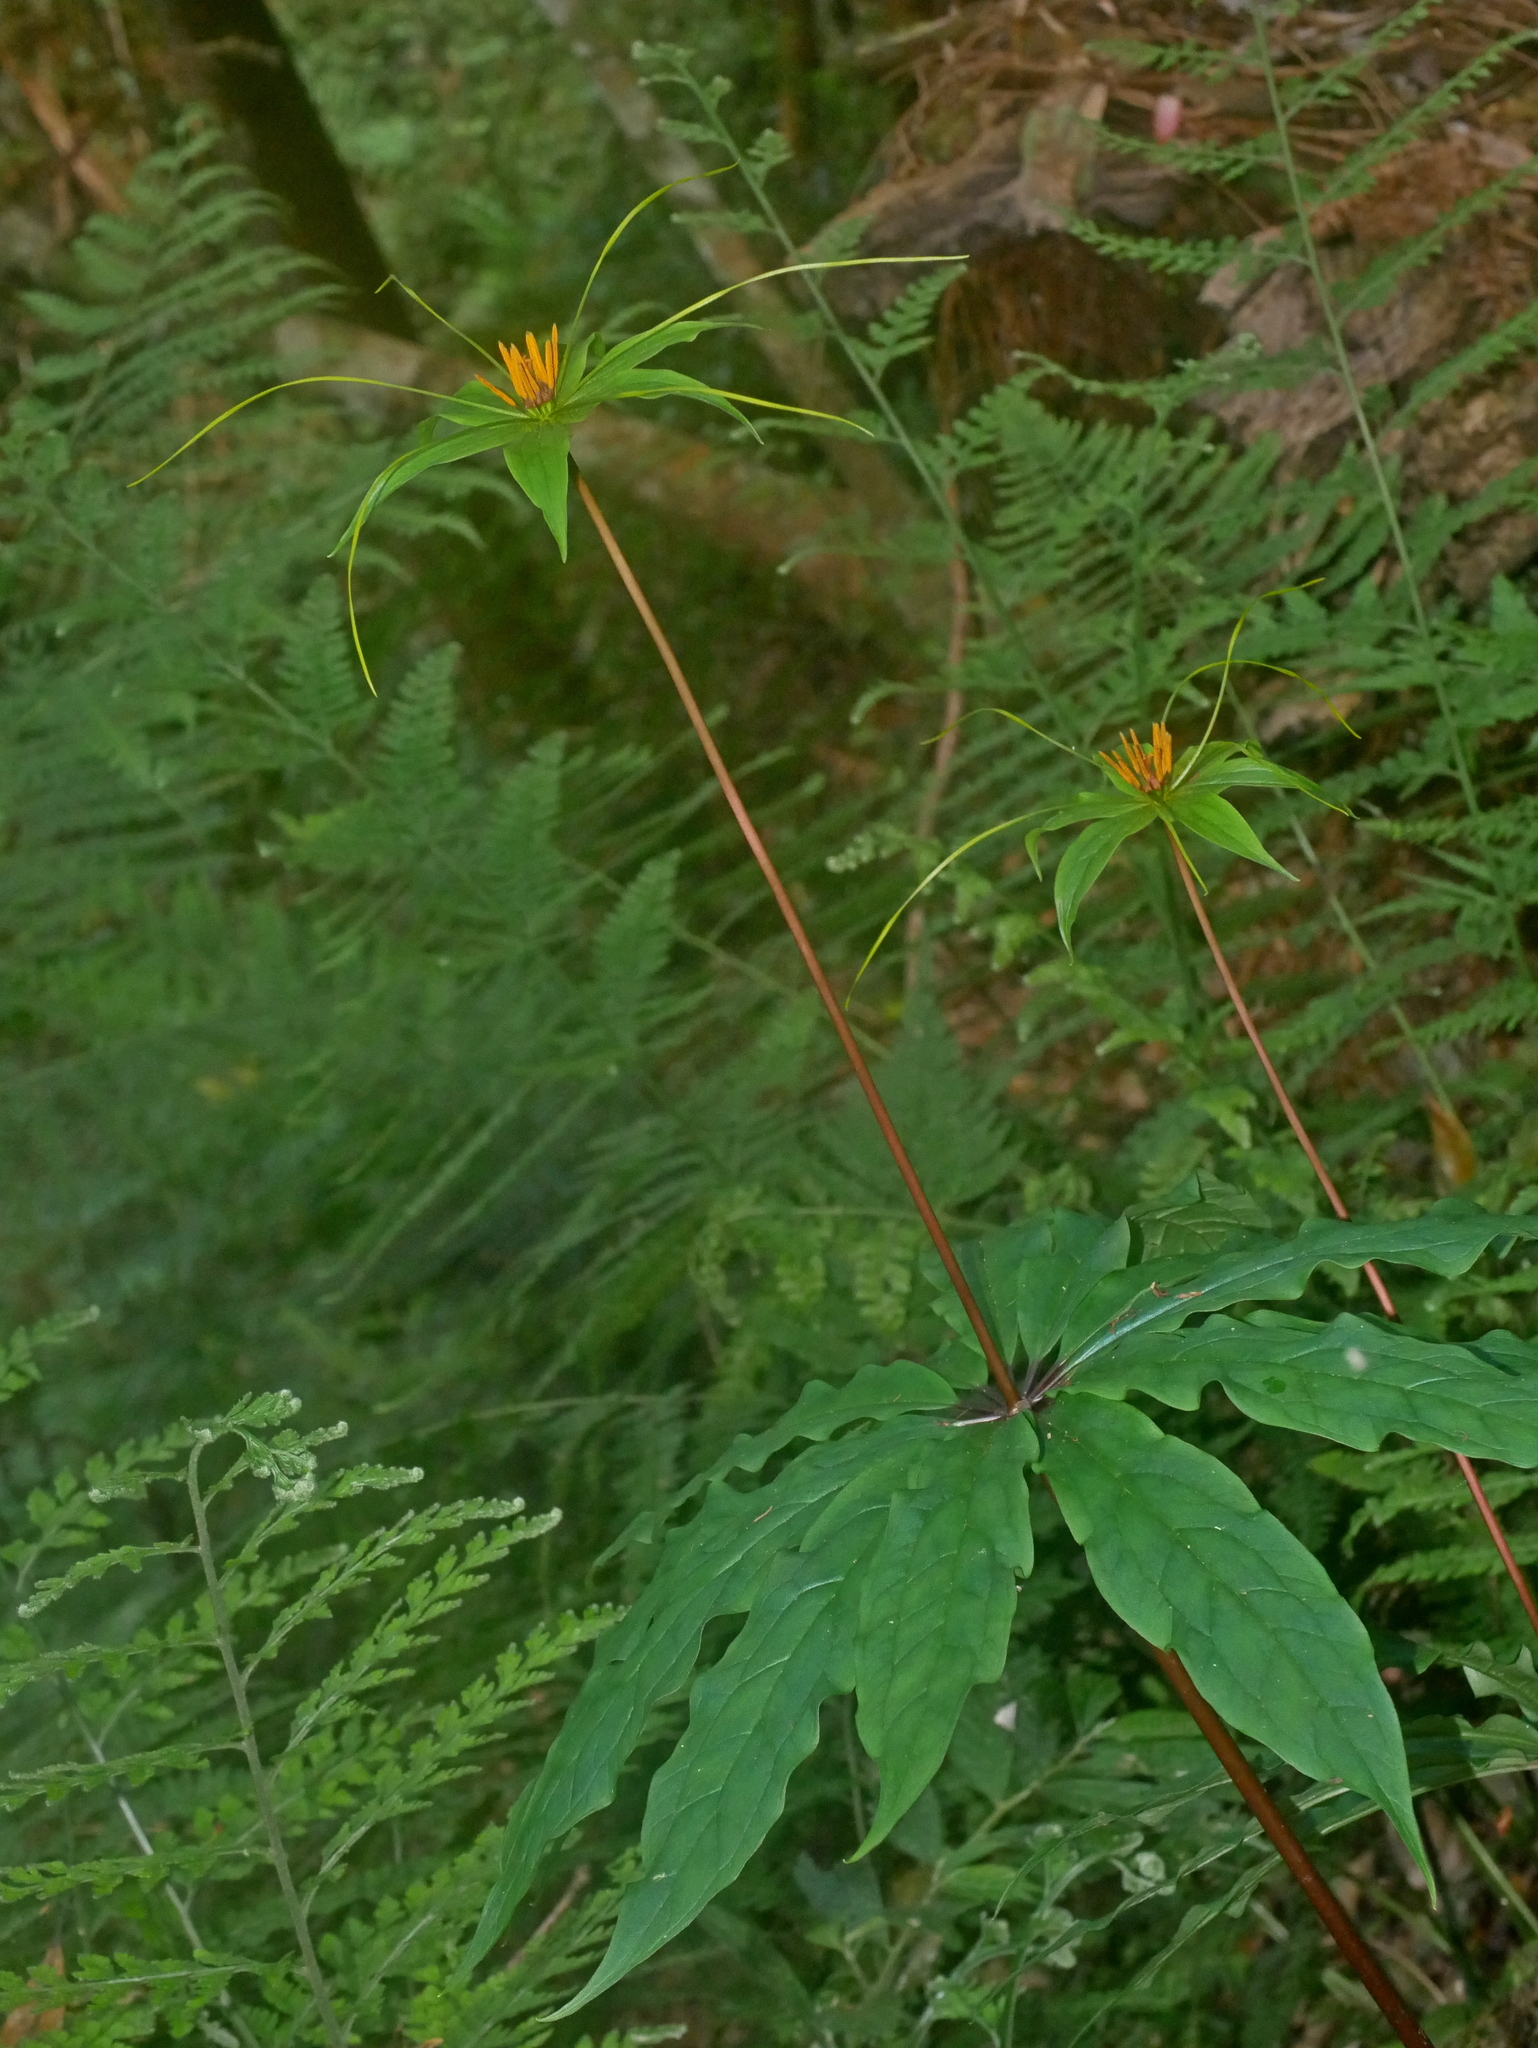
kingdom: Plantae
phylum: Tracheophyta
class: Liliopsida
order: Liliales
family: Melanthiaceae
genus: Paris
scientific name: Paris lancifolia
